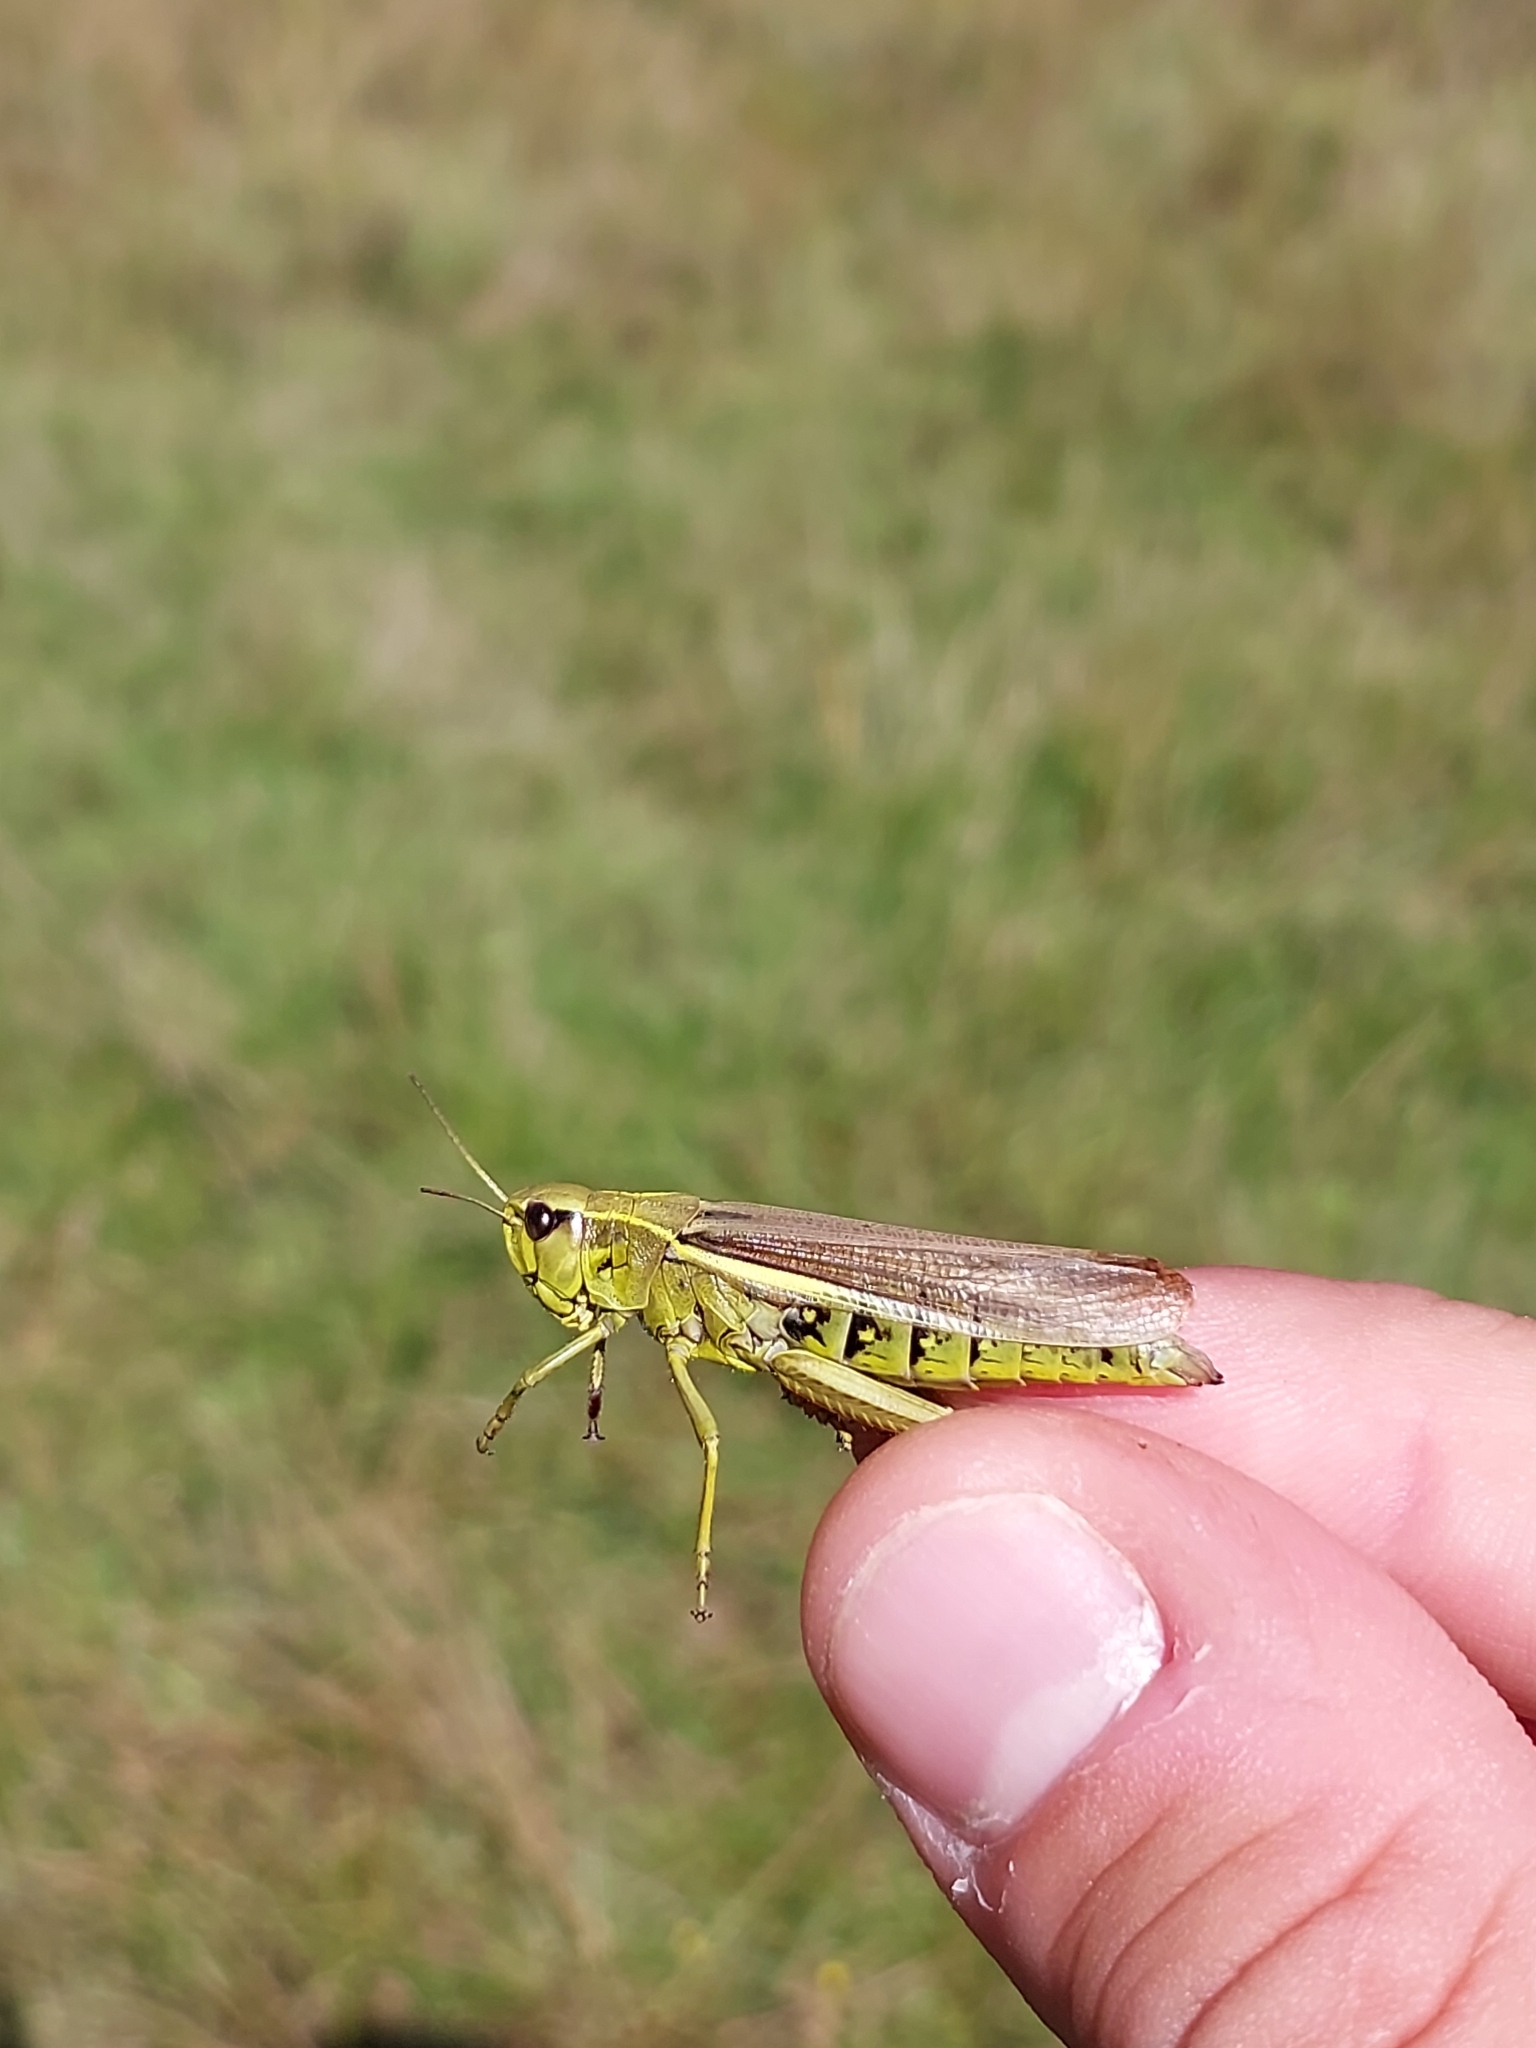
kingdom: Animalia
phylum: Arthropoda
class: Insecta
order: Orthoptera
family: Acrididae
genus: Stethophyma
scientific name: Stethophyma grossum
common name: Large marsh grasshopper
